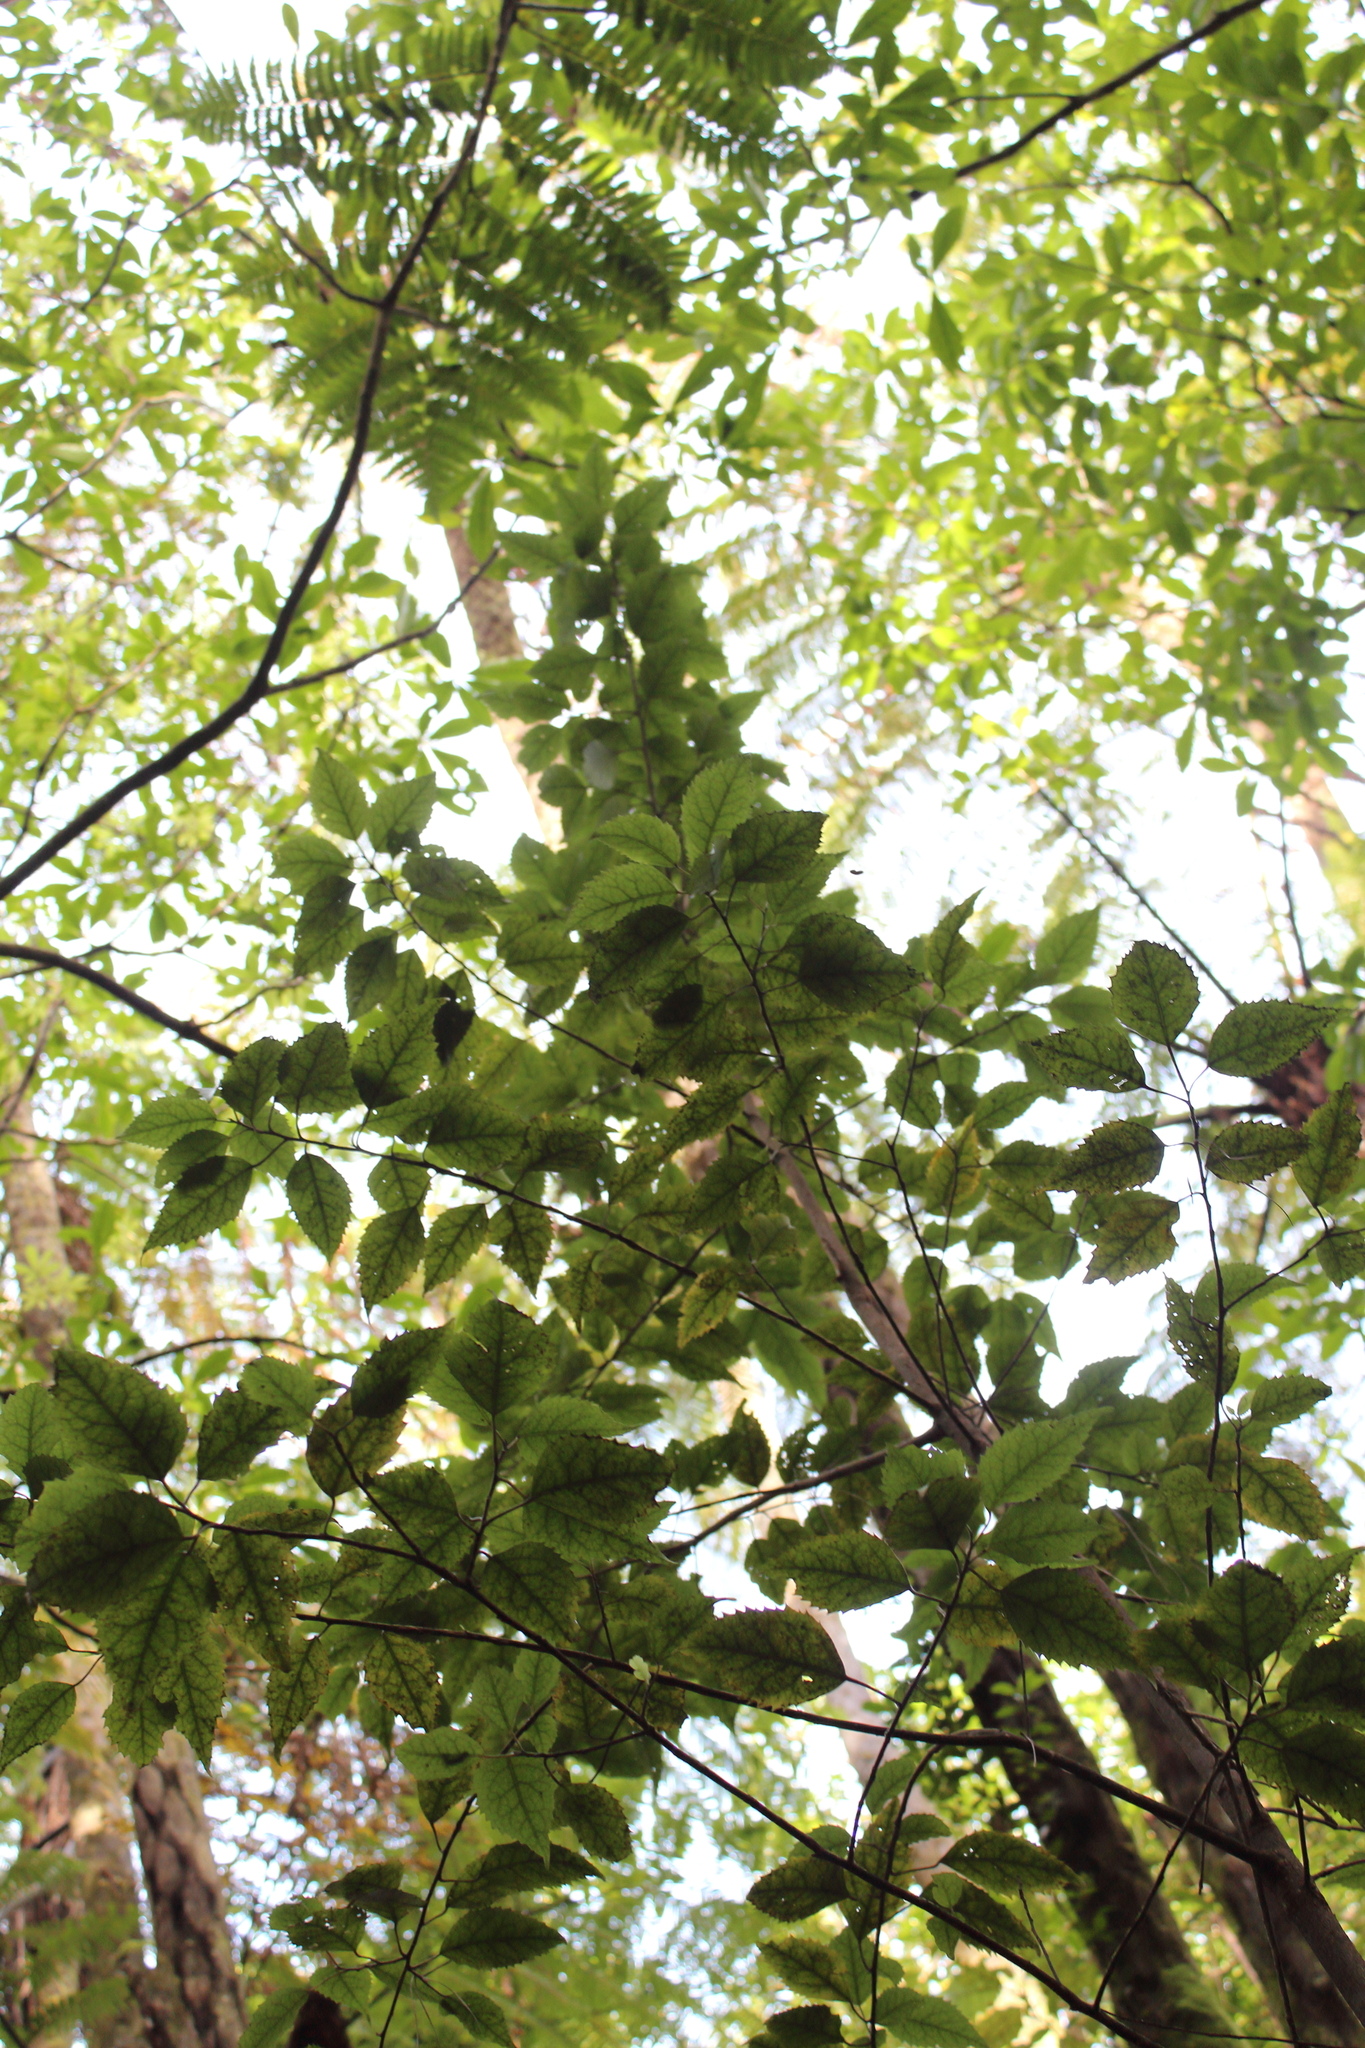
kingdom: Plantae
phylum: Tracheophyta
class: Magnoliopsida
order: Malvales
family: Malvaceae
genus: Hoheria
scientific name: Hoheria populnea
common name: Lacebark
